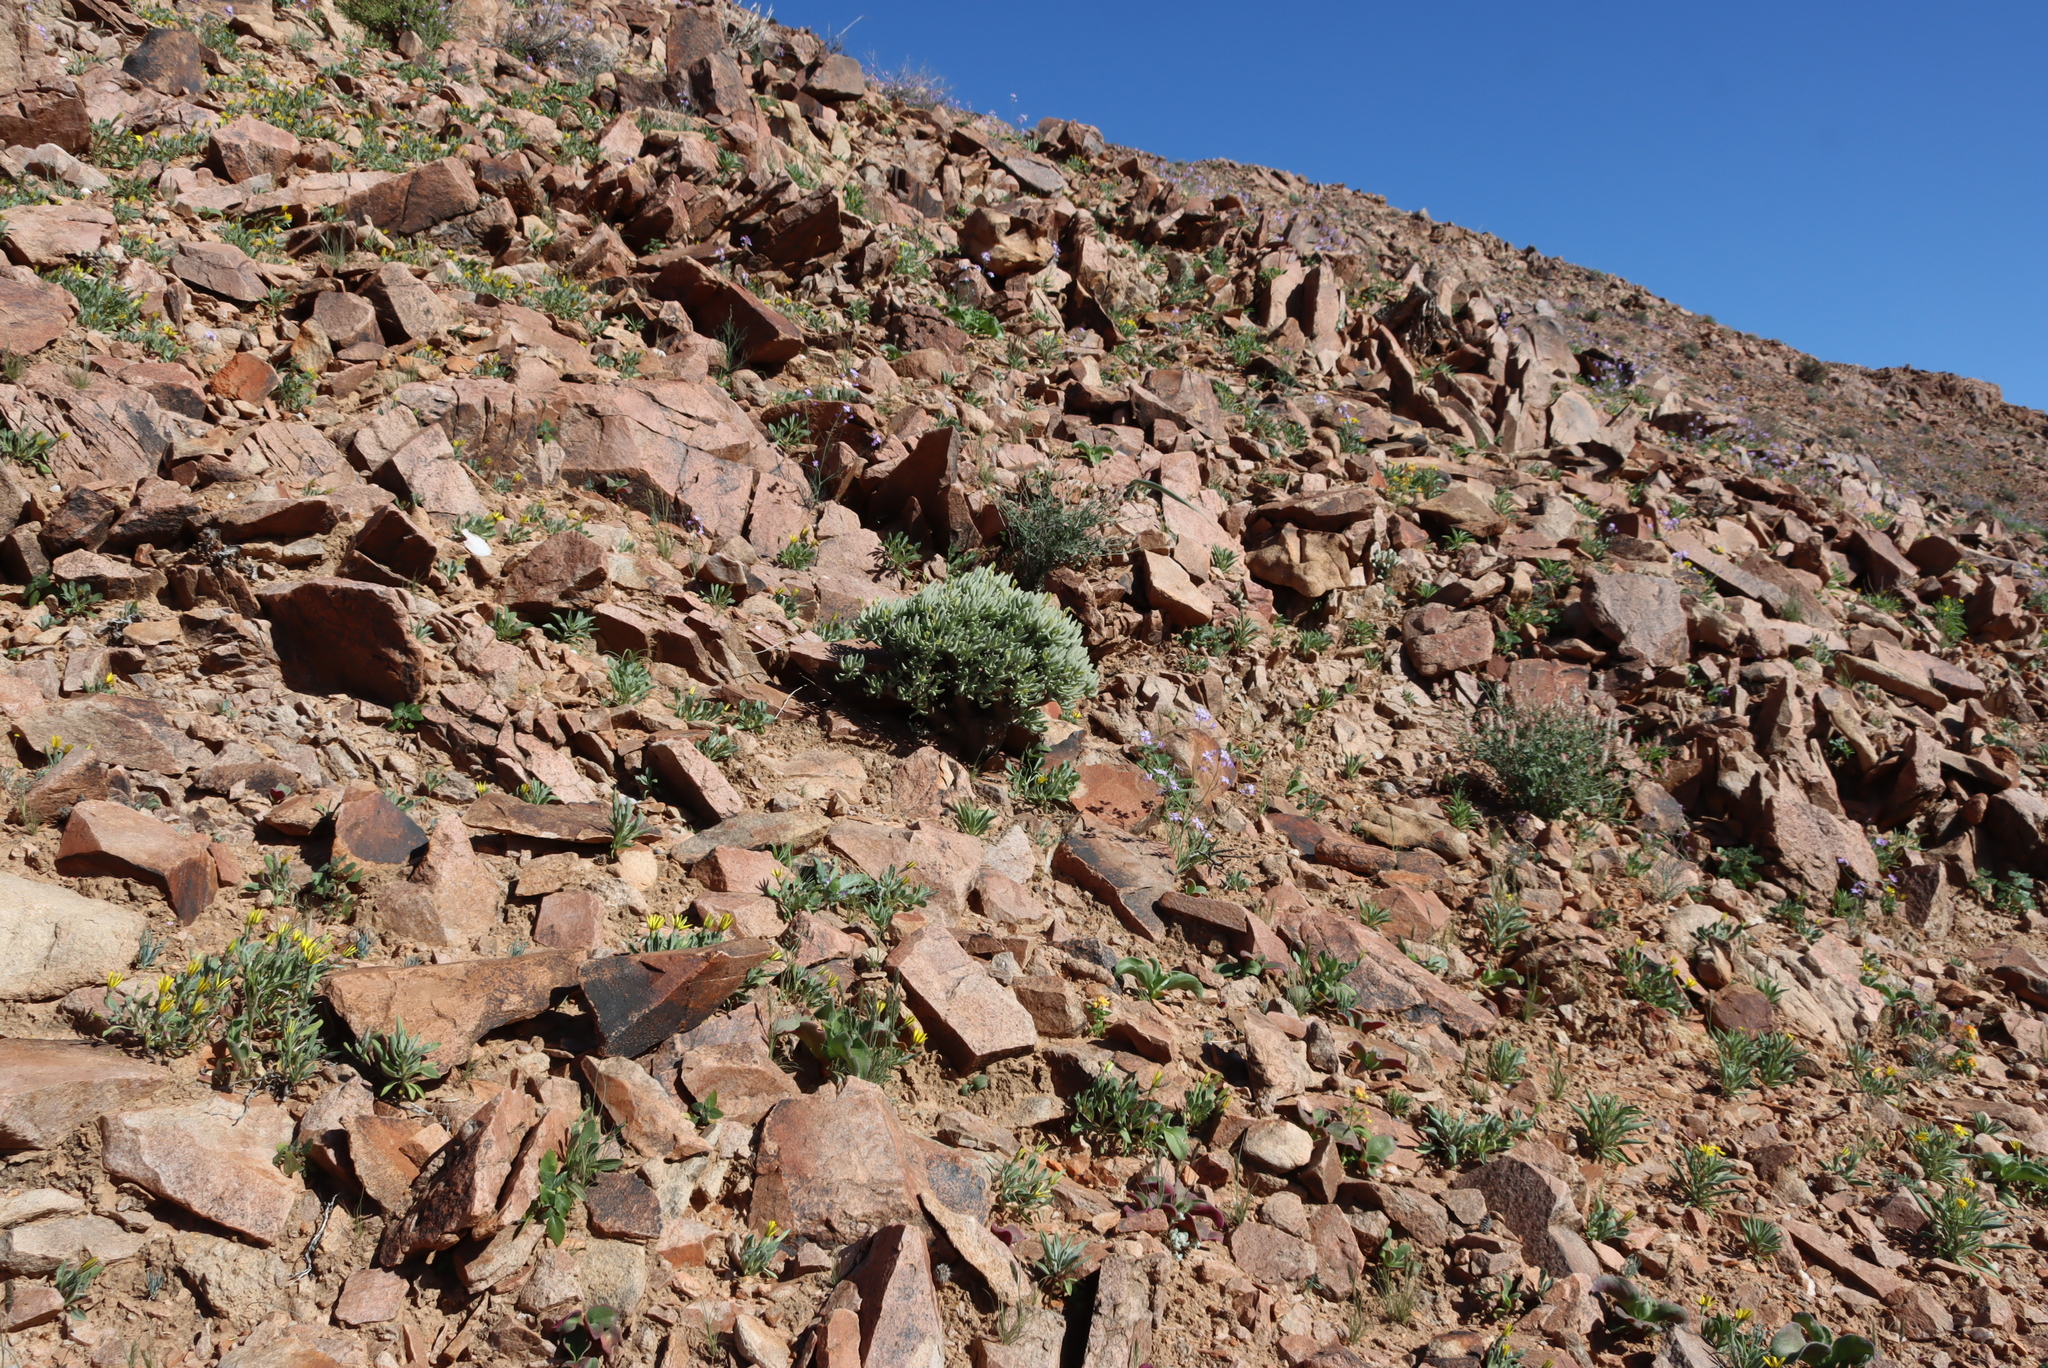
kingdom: Plantae
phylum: Tracheophyta
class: Magnoliopsida
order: Saxifragales
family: Crassulaceae
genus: Tylecodon
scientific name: Tylecodon hallii
